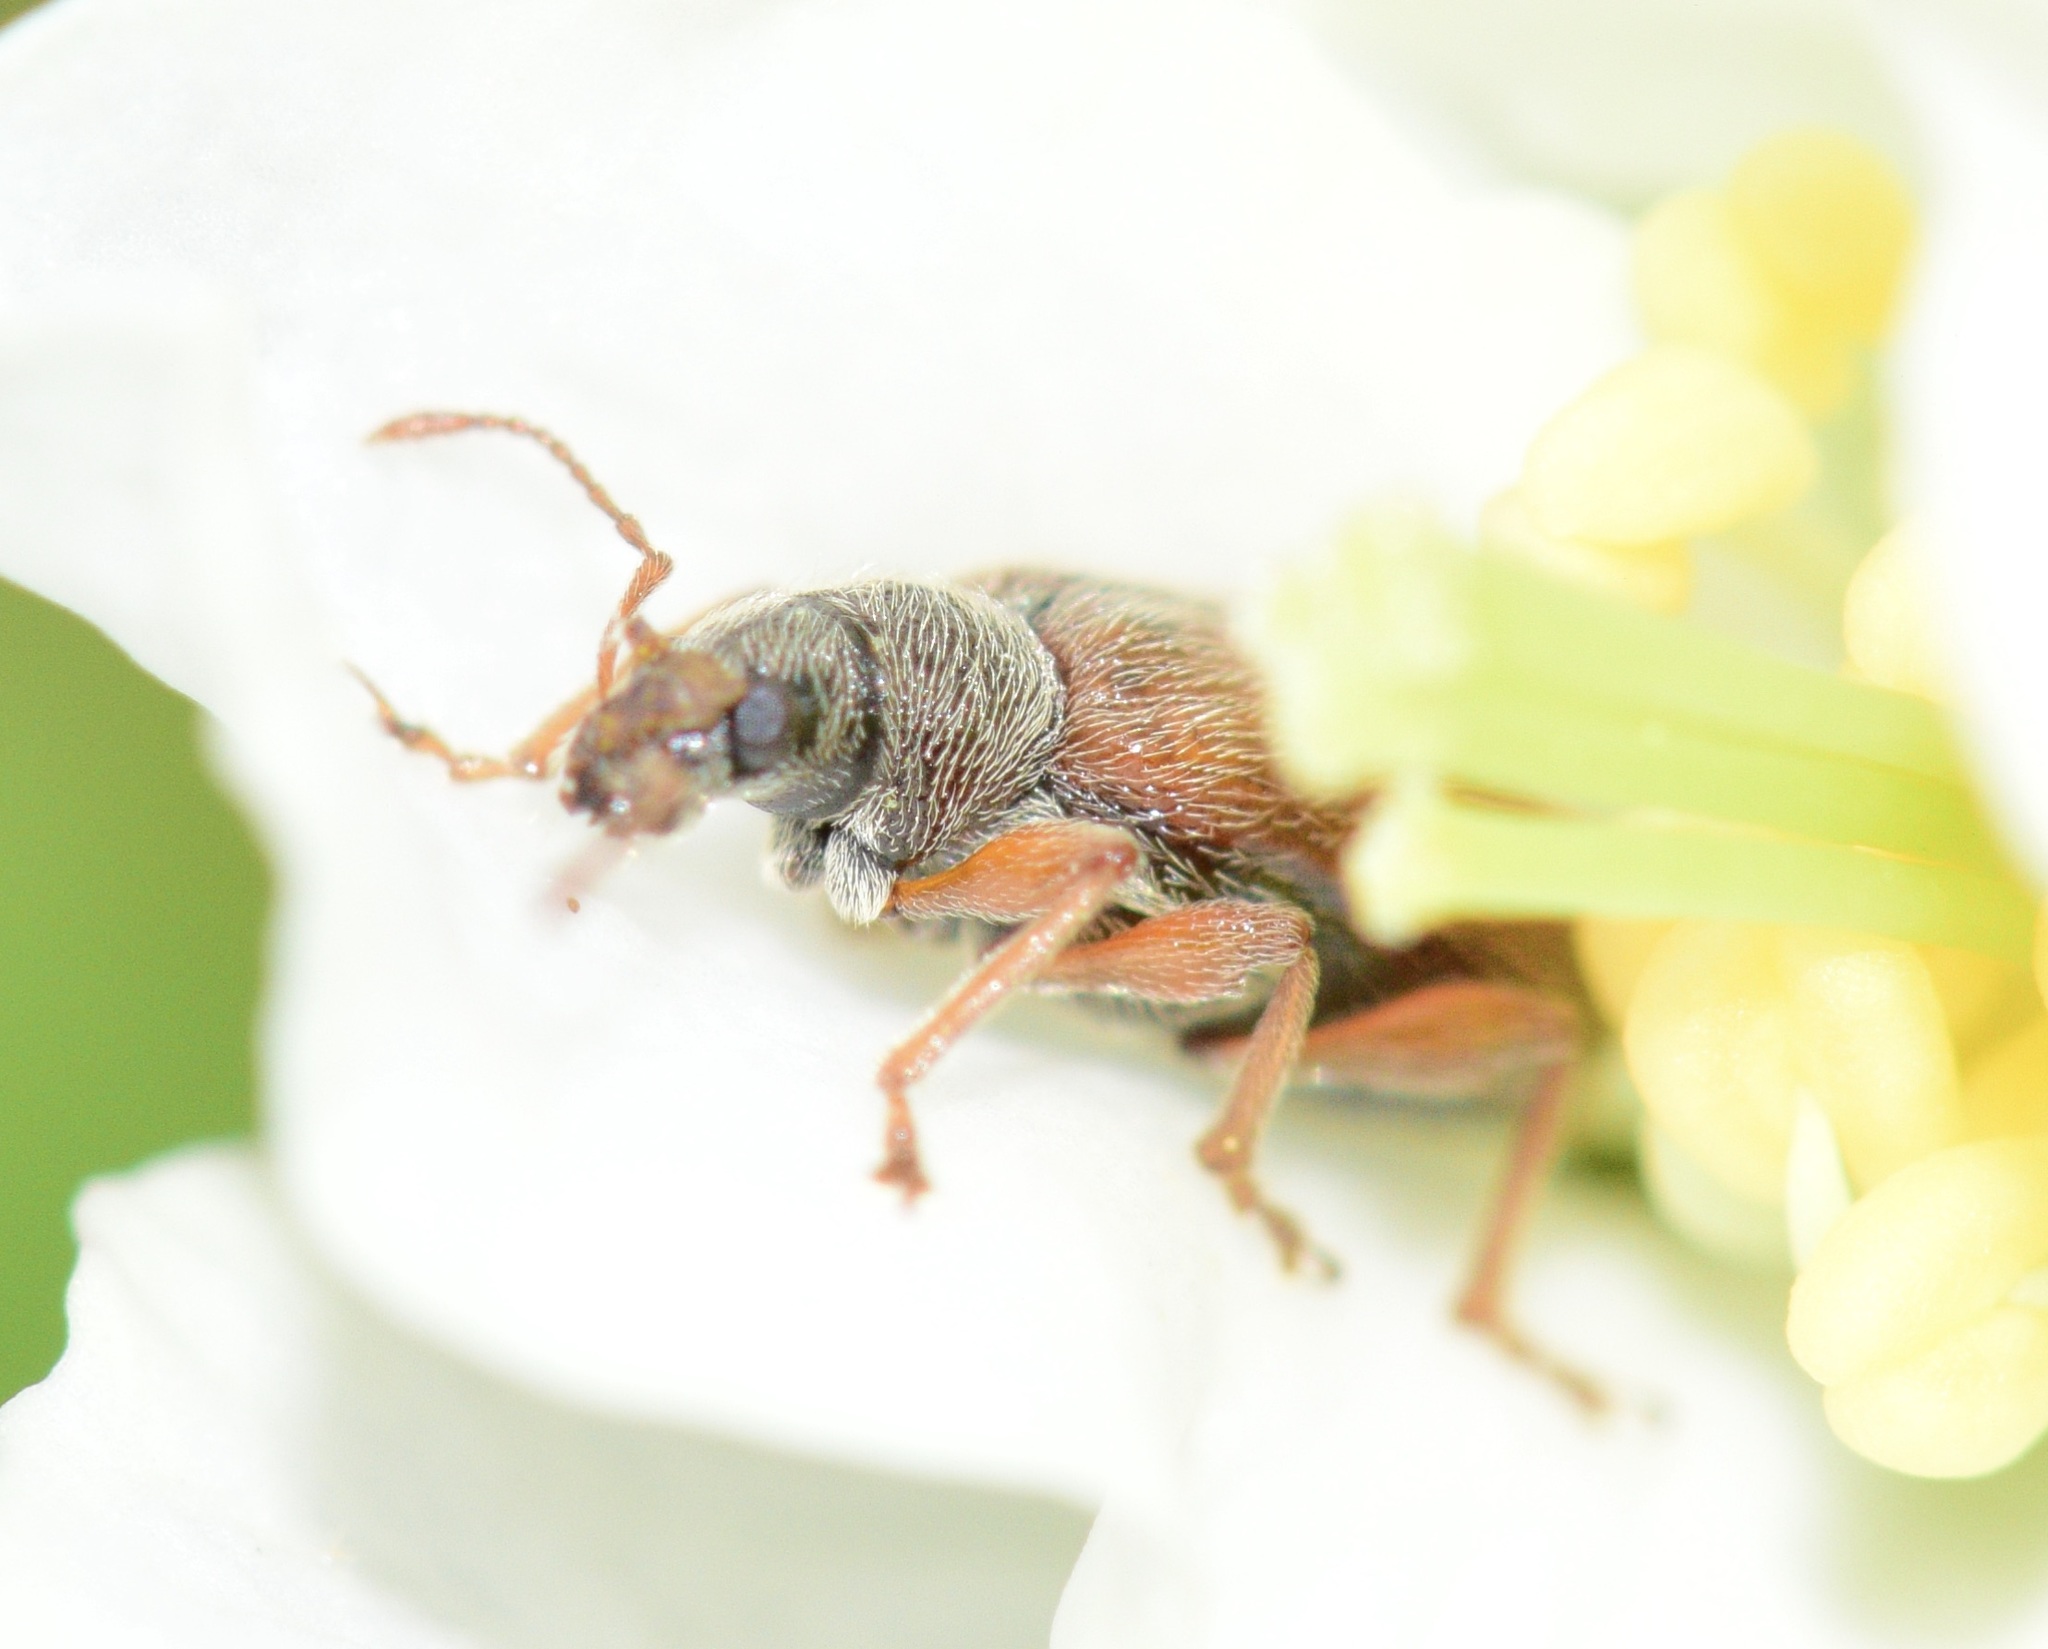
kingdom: Animalia
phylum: Arthropoda
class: Insecta
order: Coleoptera
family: Curculionidae
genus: Phyllobius
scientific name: Phyllobius oblongus
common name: Brown leaf weevil
